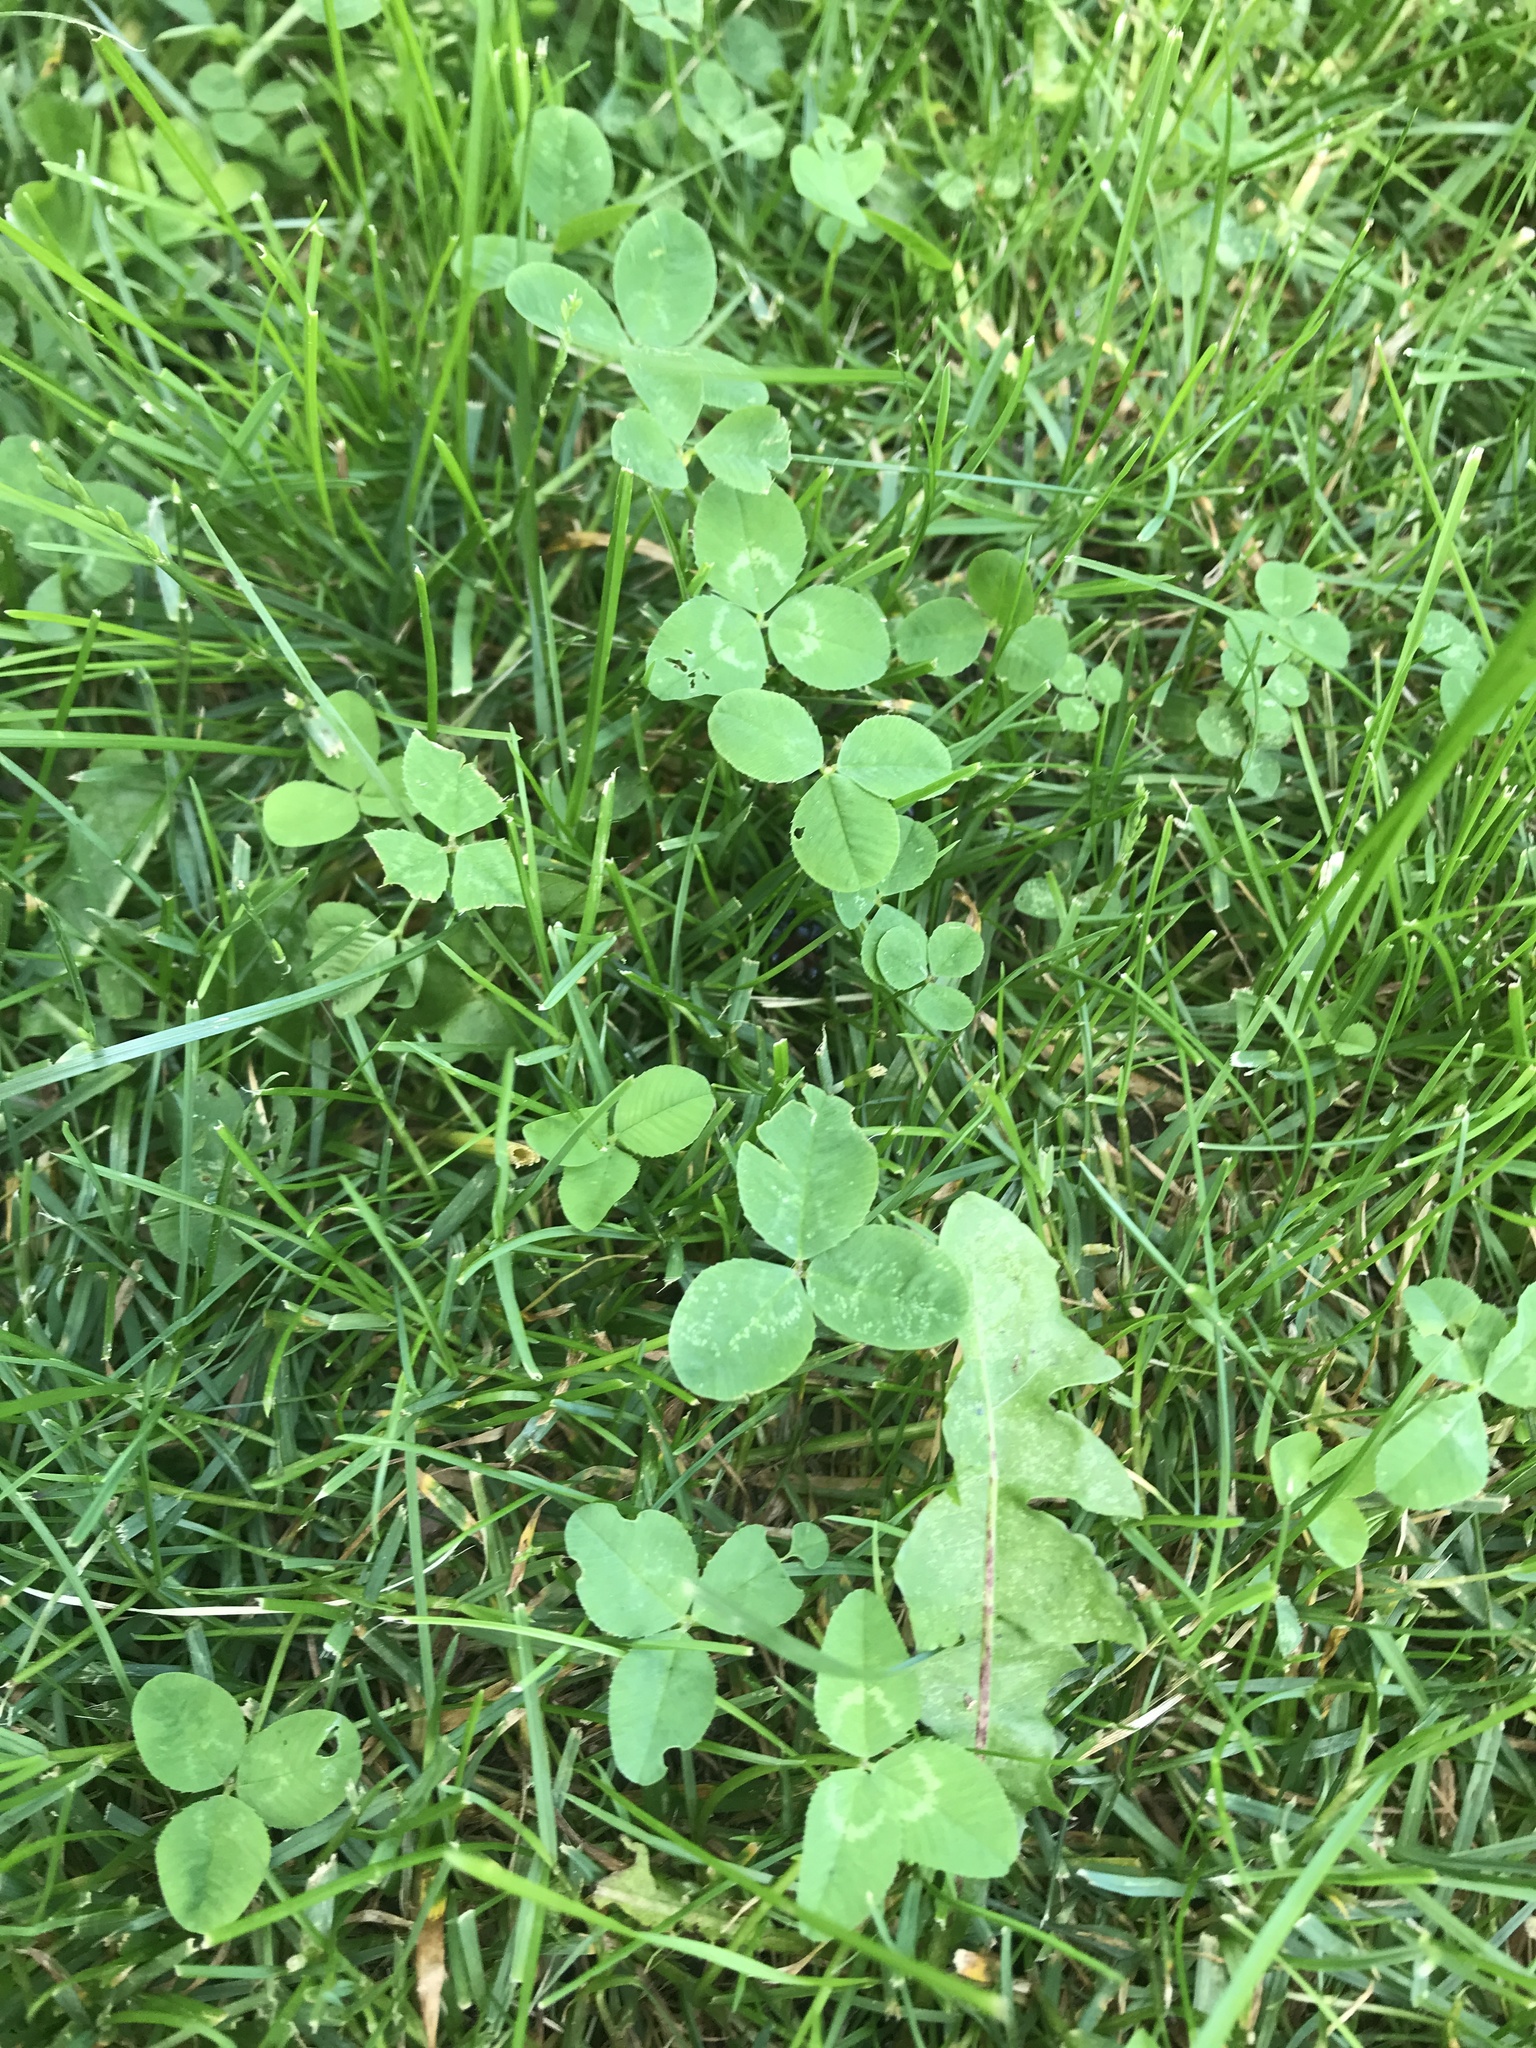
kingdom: Plantae
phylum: Tracheophyta
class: Magnoliopsida
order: Fabales
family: Fabaceae
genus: Trifolium
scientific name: Trifolium repens
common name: White clover
